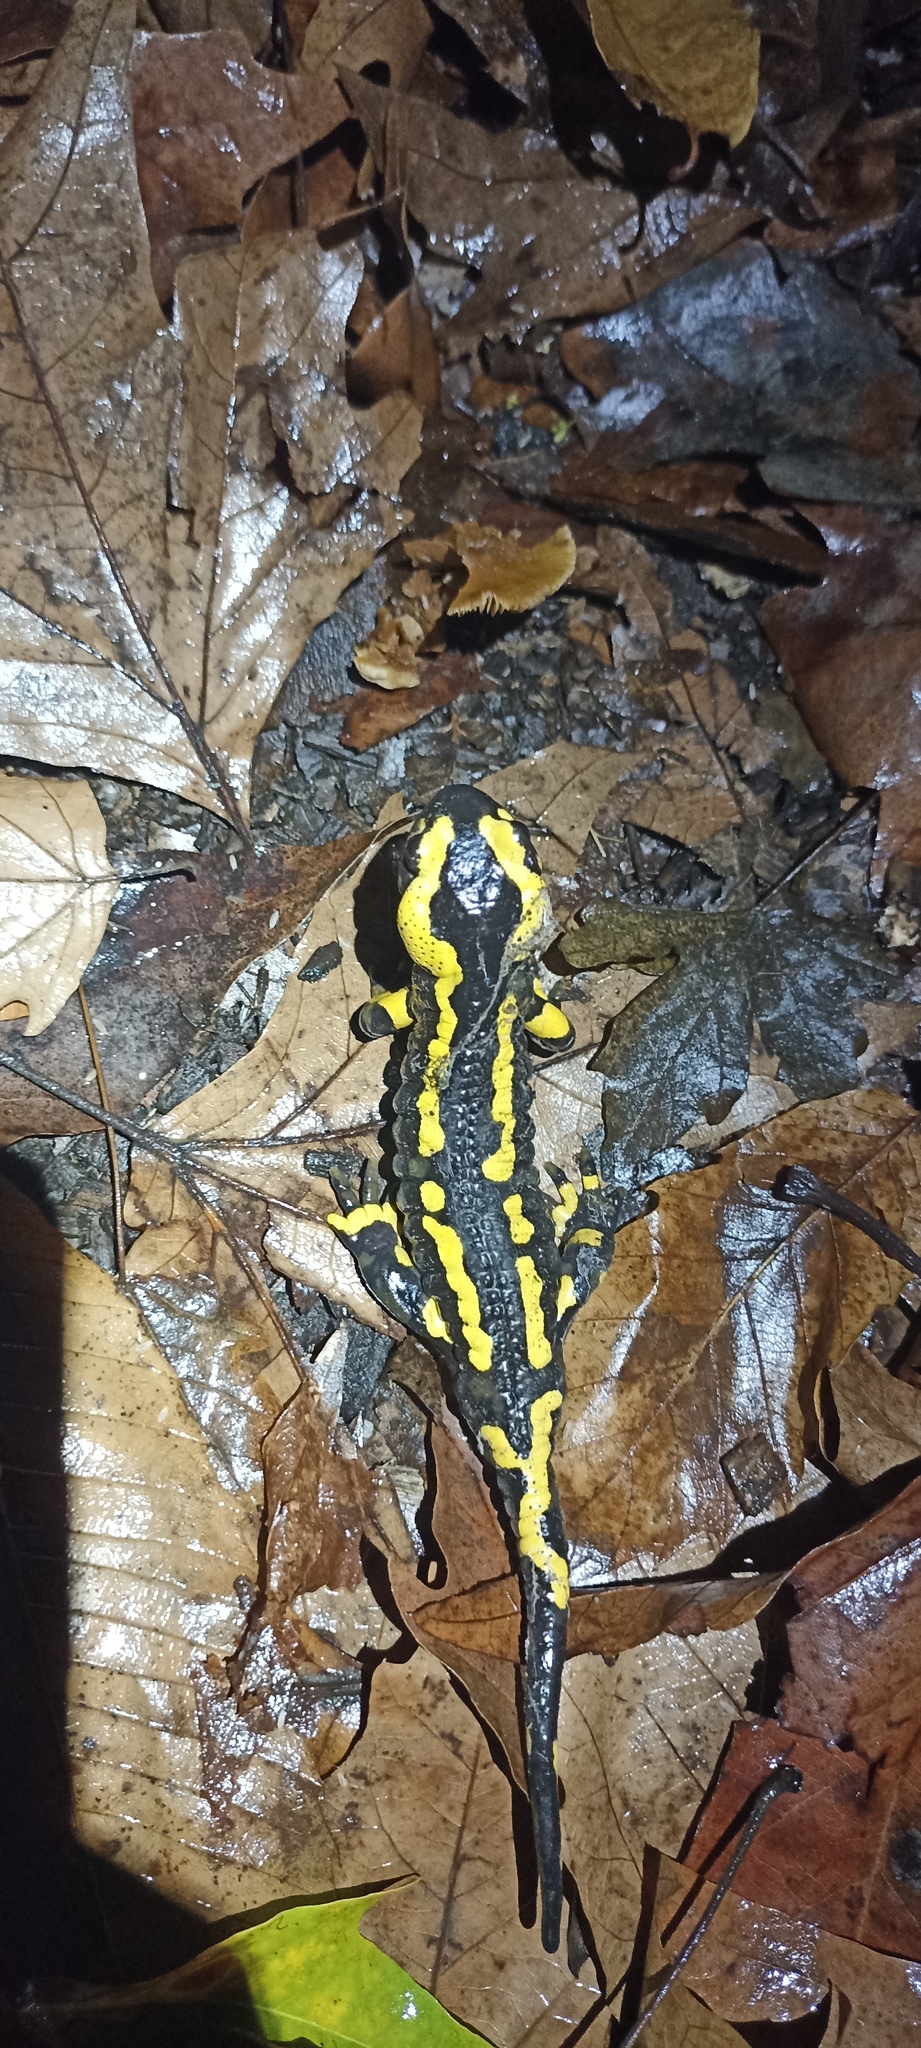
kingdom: Animalia
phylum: Chordata
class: Amphibia
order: Caudata
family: Salamandridae
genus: Salamandra
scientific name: Salamandra salamandra
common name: Fire salamander
